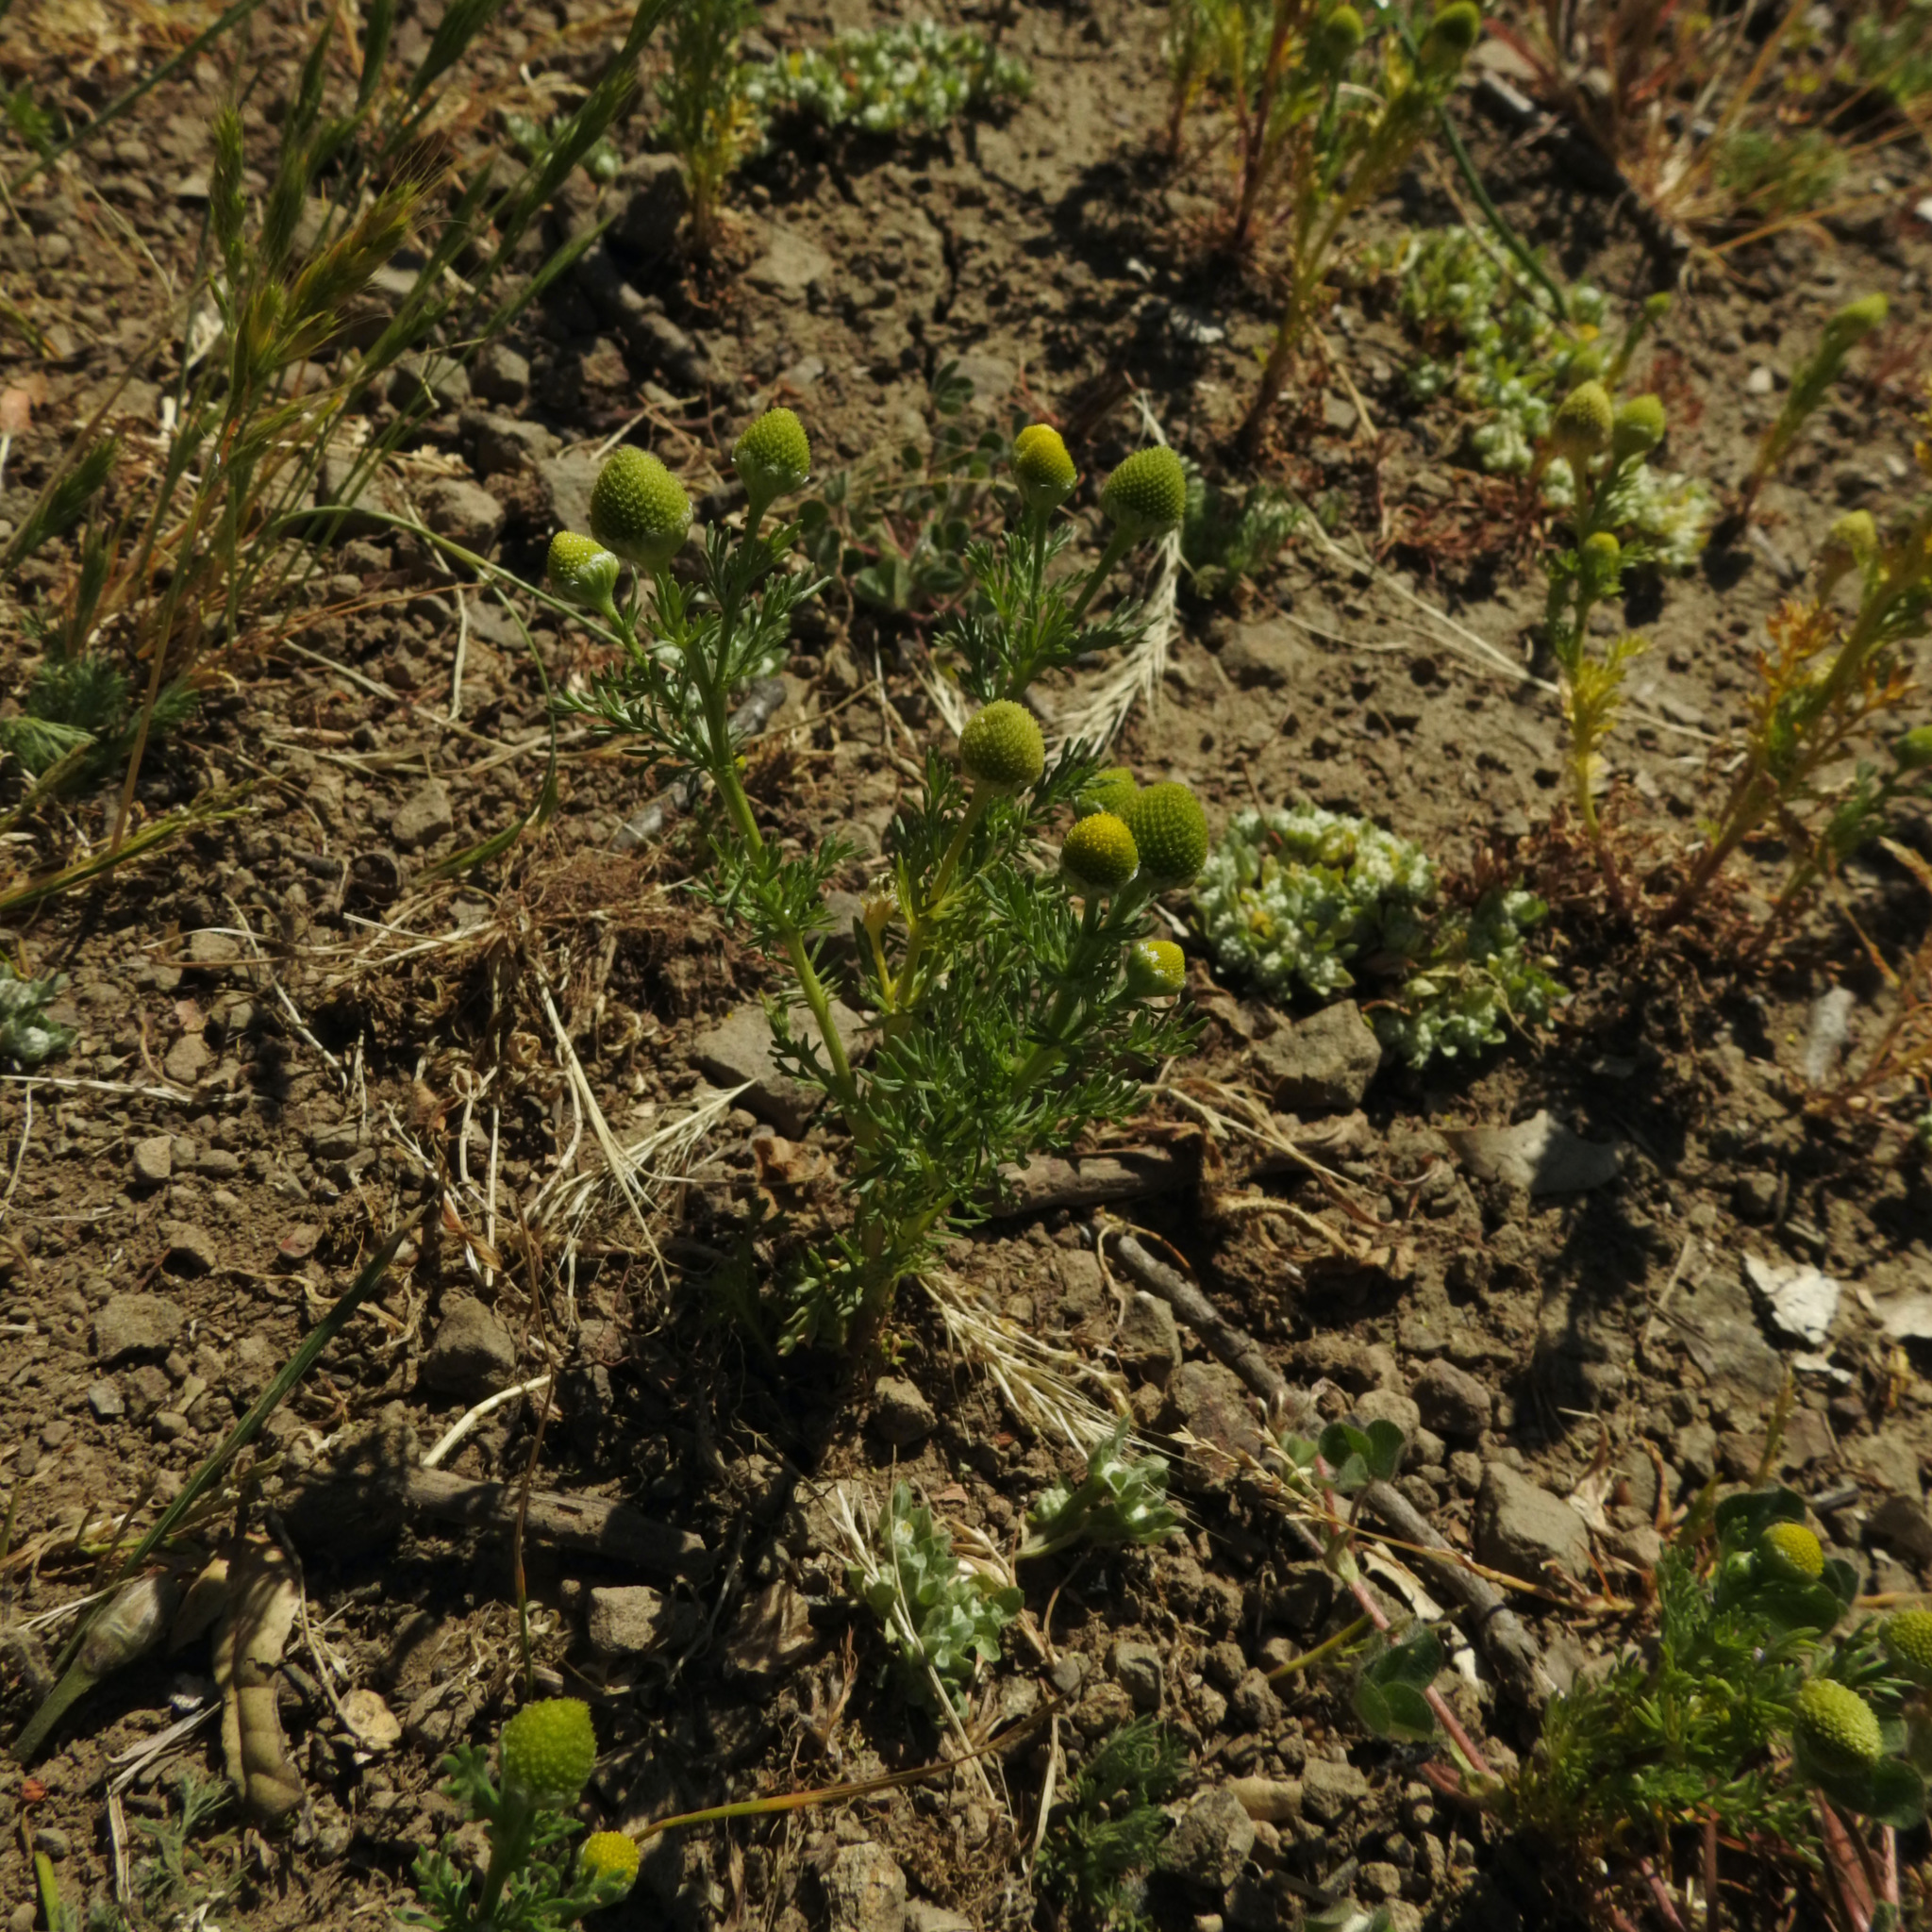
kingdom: Plantae
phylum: Tracheophyta
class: Magnoliopsida
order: Asterales
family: Asteraceae
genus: Matricaria
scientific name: Matricaria discoidea
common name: Disc mayweed
